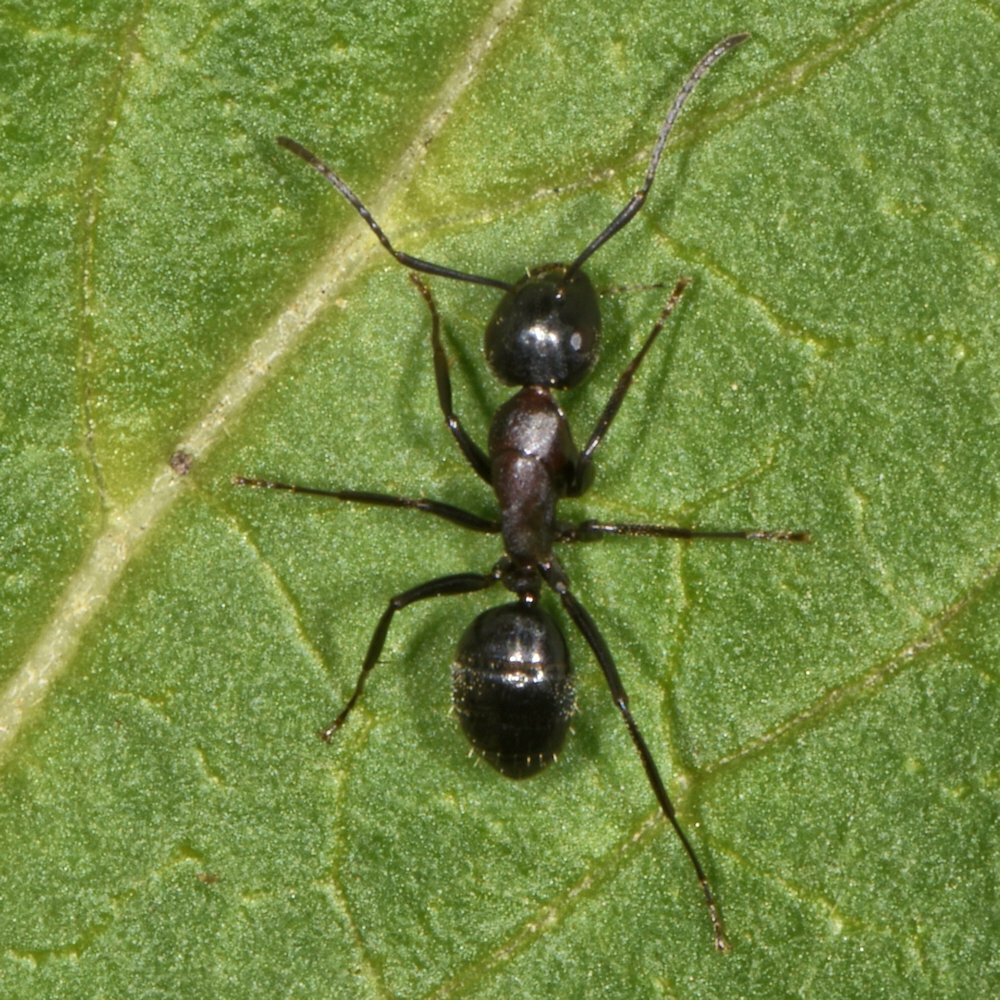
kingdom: Animalia
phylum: Arthropoda
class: Insecta
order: Hymenoptera
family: Formicidae
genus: Camponotus
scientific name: Camponotus novaeboracensis
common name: New york carpenter ant
